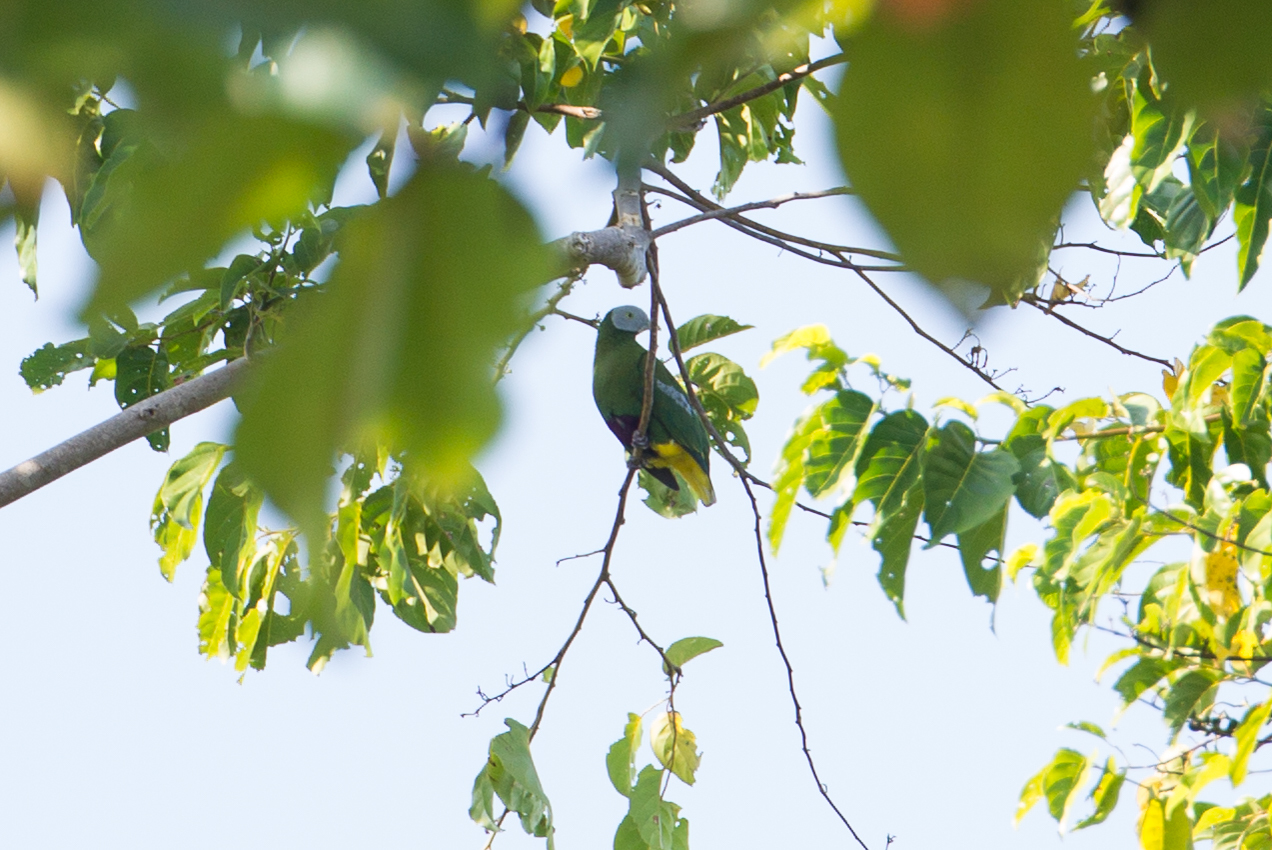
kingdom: Animalia
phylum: Chordata
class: Aves
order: Columbiformes
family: Columbidae
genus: Ptilinopus
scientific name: Ptilinopus hyogastrus
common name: Grey-headed fruit dove
